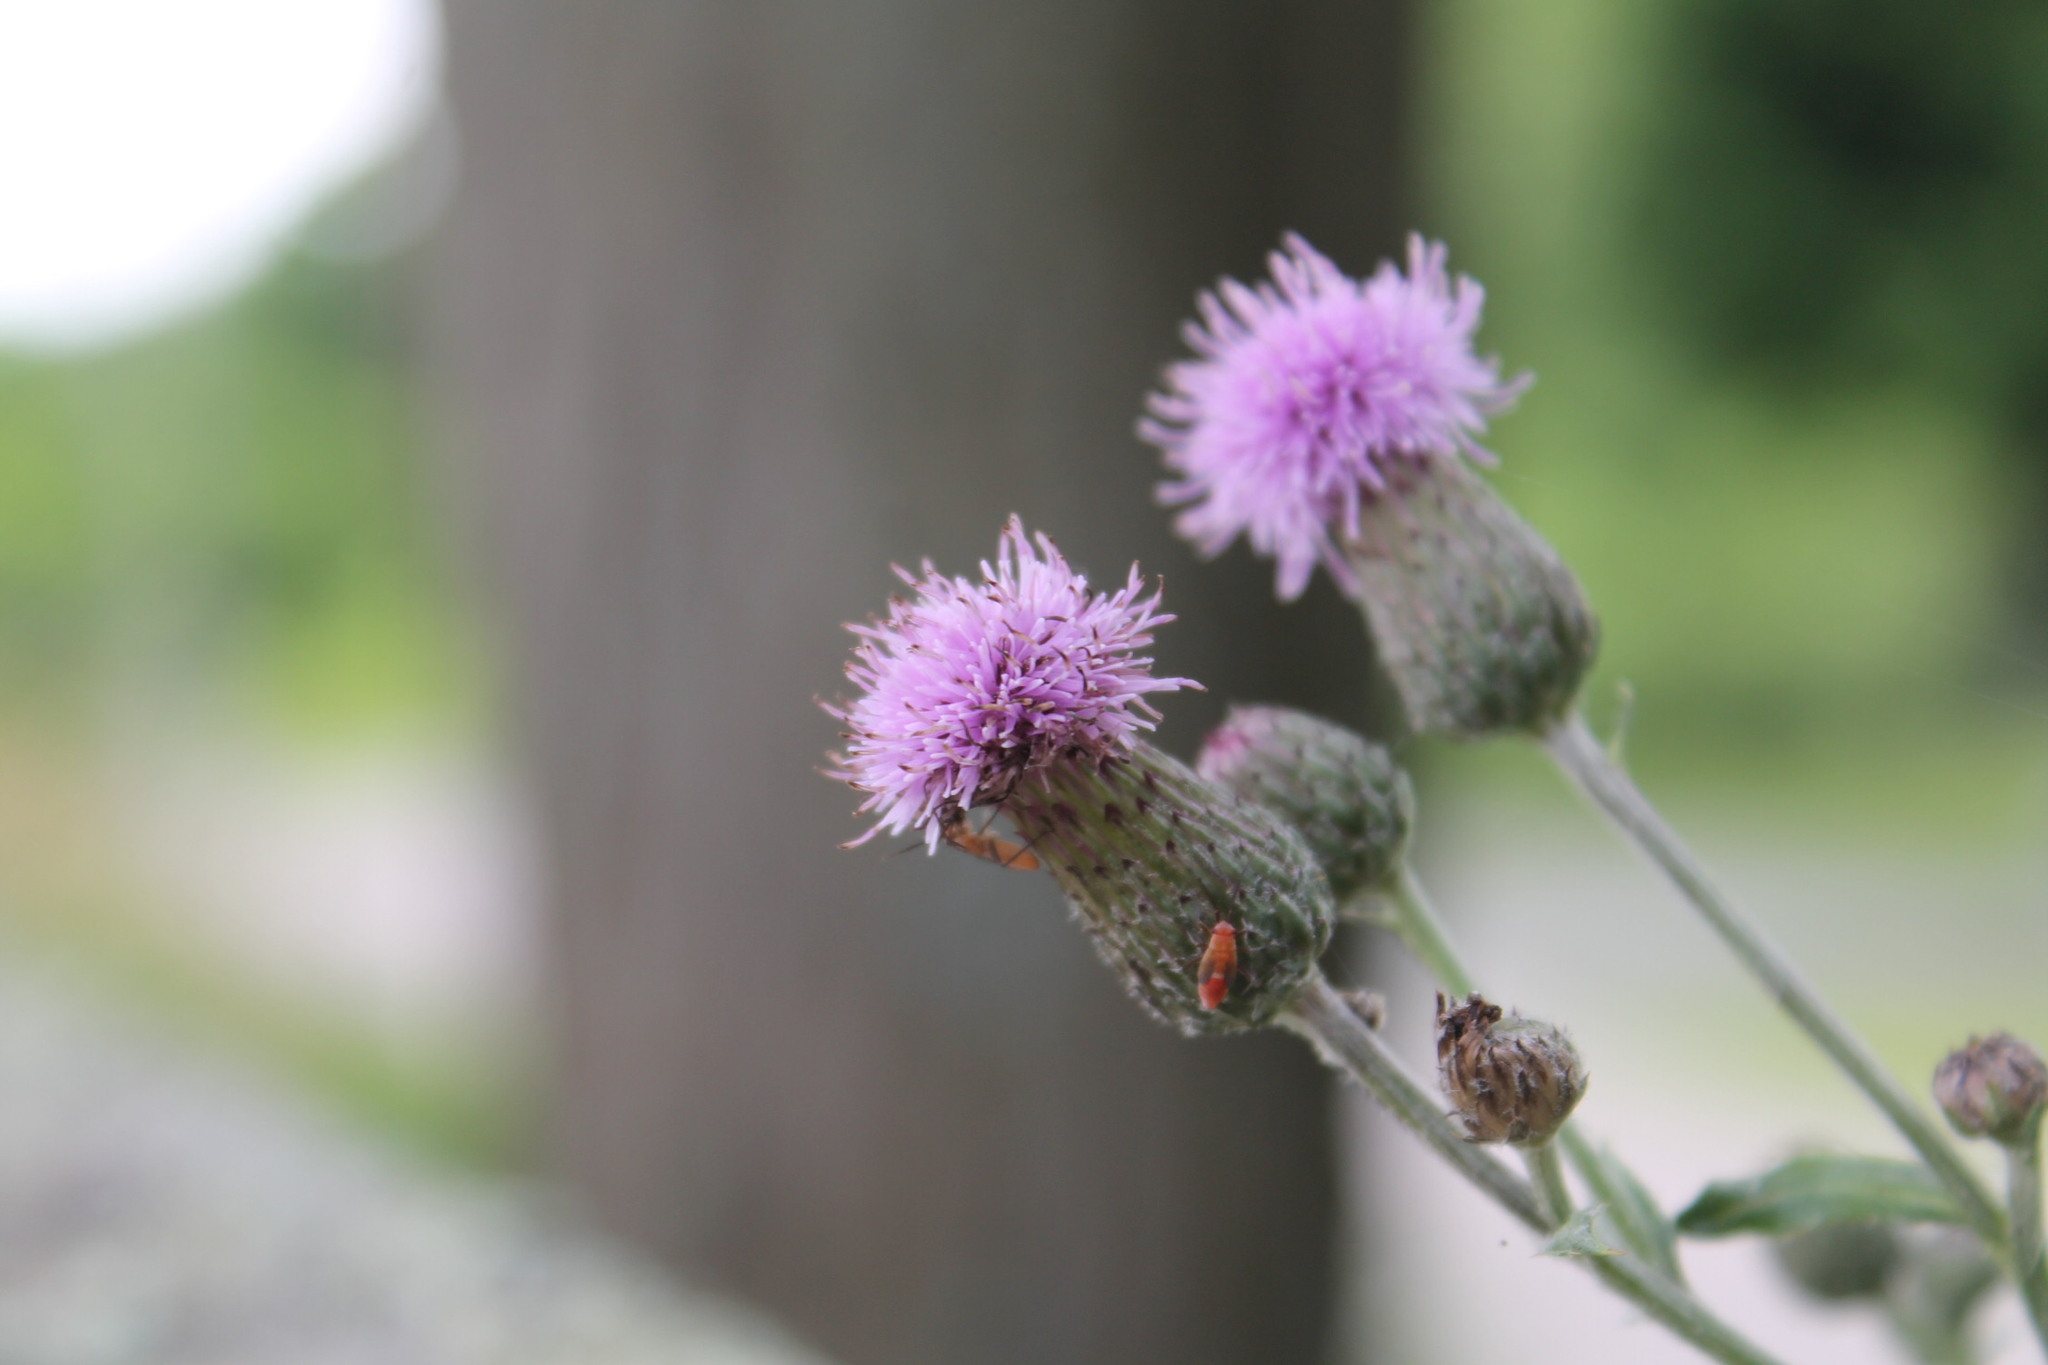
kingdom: Plantae
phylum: Tracheophyta
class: Magnoliopsida
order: Asterales
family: Asteraceae
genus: Cirsium
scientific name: Cirsium arvense
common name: Creeping thistle
